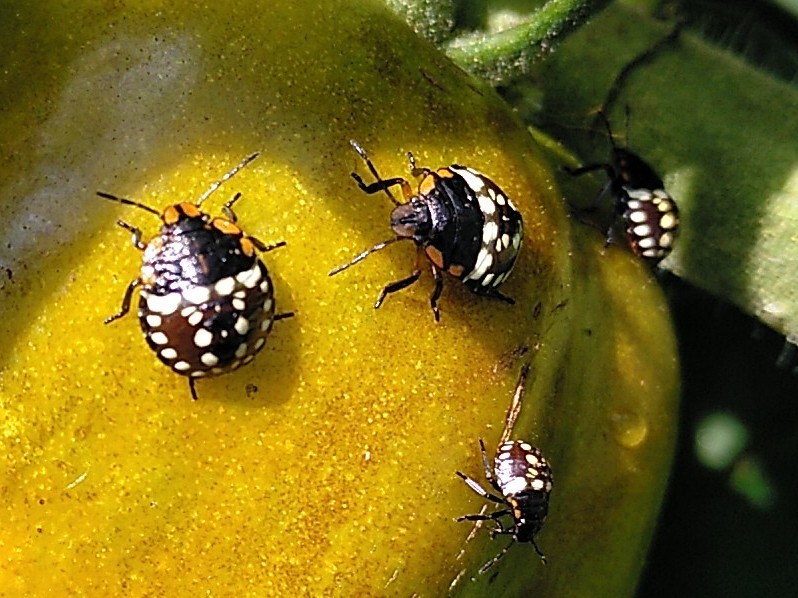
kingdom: Animalia
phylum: Arthropoda
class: Insecta
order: Hemiptera
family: Pentatomidae
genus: Nezara
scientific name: Nezara viridula
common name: Southern green stink bug
